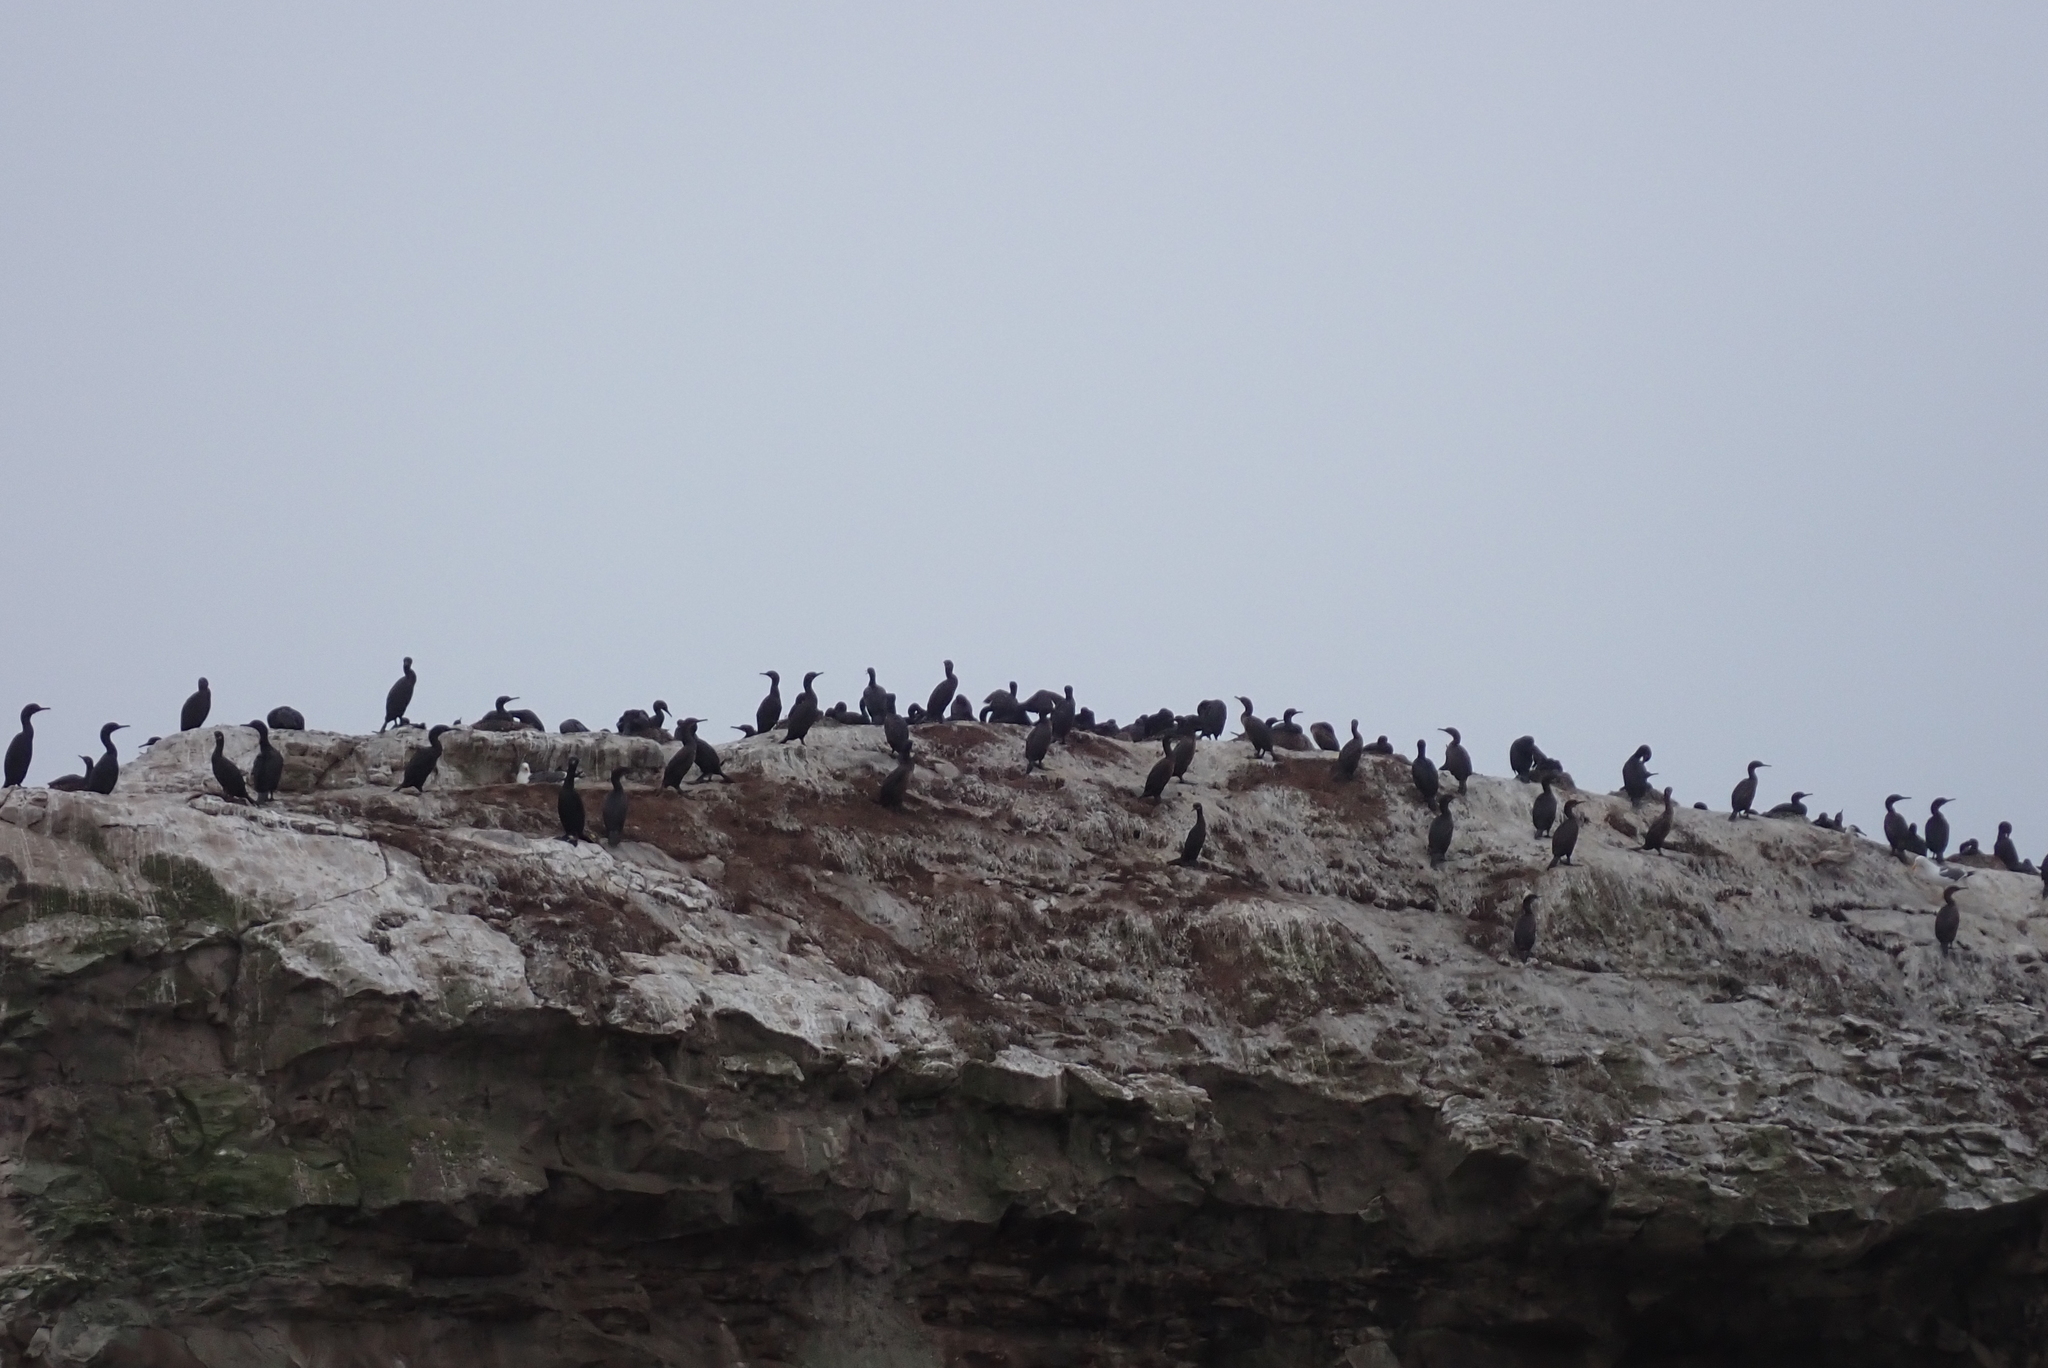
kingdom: Animalia
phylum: Chordata
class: Aves
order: Suliformes
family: Phalacrocoracidae
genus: Urile
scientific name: Urile penicillatus
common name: Brandt's cormorant
